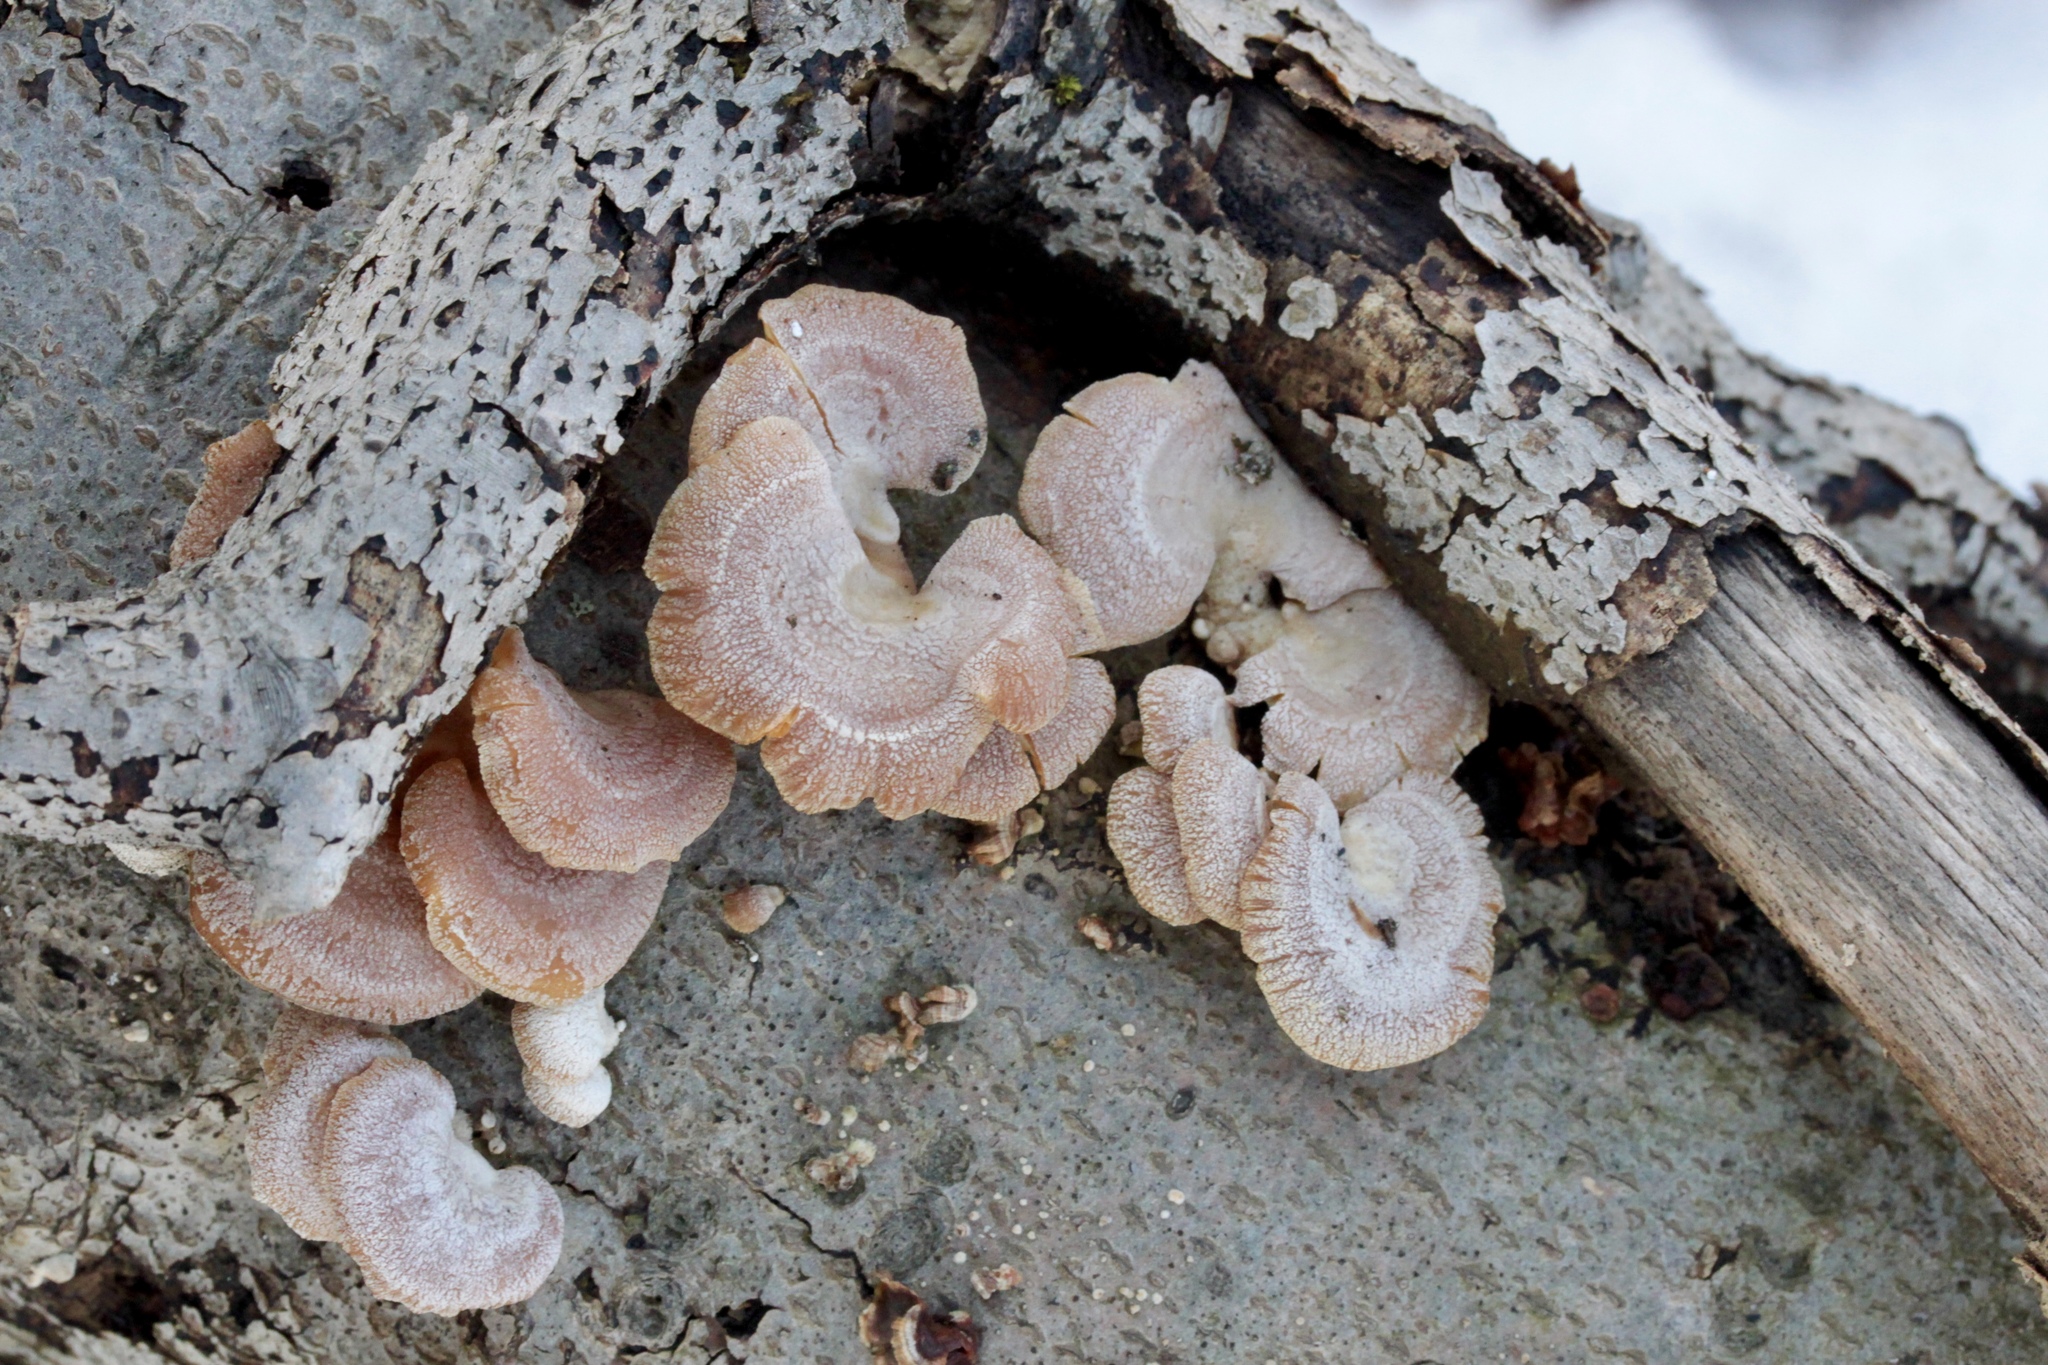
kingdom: Fungi
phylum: Basidiomycota
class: Agaricomycetes
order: Agaricales
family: Mycenaceae
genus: Panellus
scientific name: Panellus stipticus
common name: Bitter oysterling
